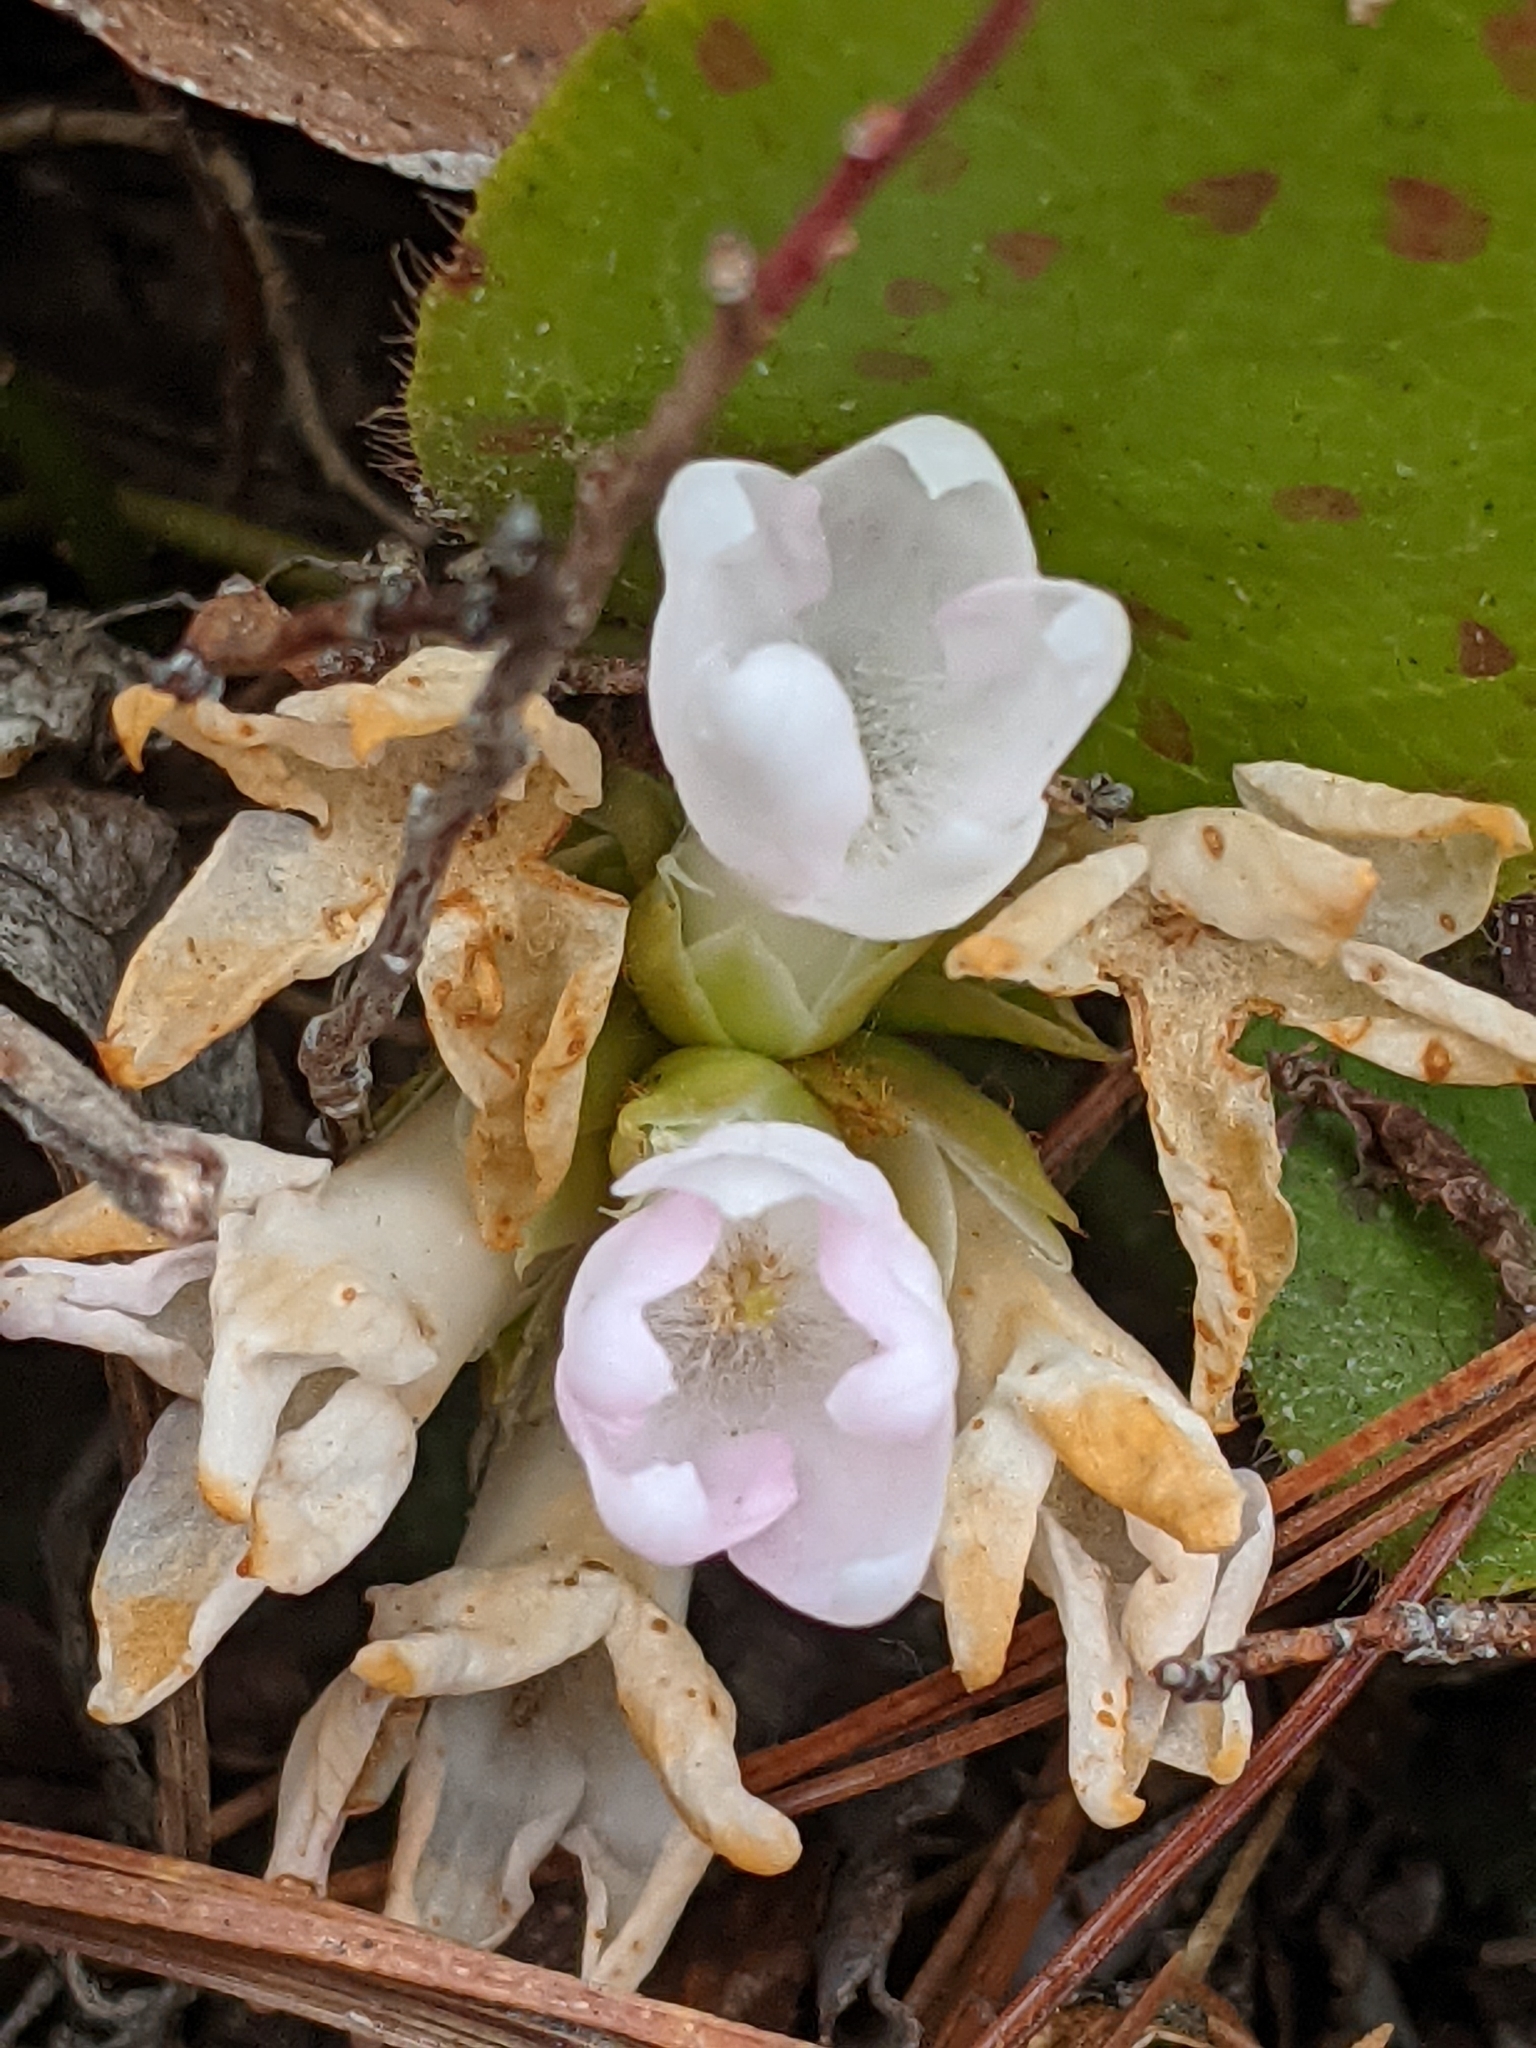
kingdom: Plantae
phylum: Tracheophyta
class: Magnoliopsida
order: Ericales
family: Ericaceae
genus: Epigaea
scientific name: Epigaea repens
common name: Gravelroot
